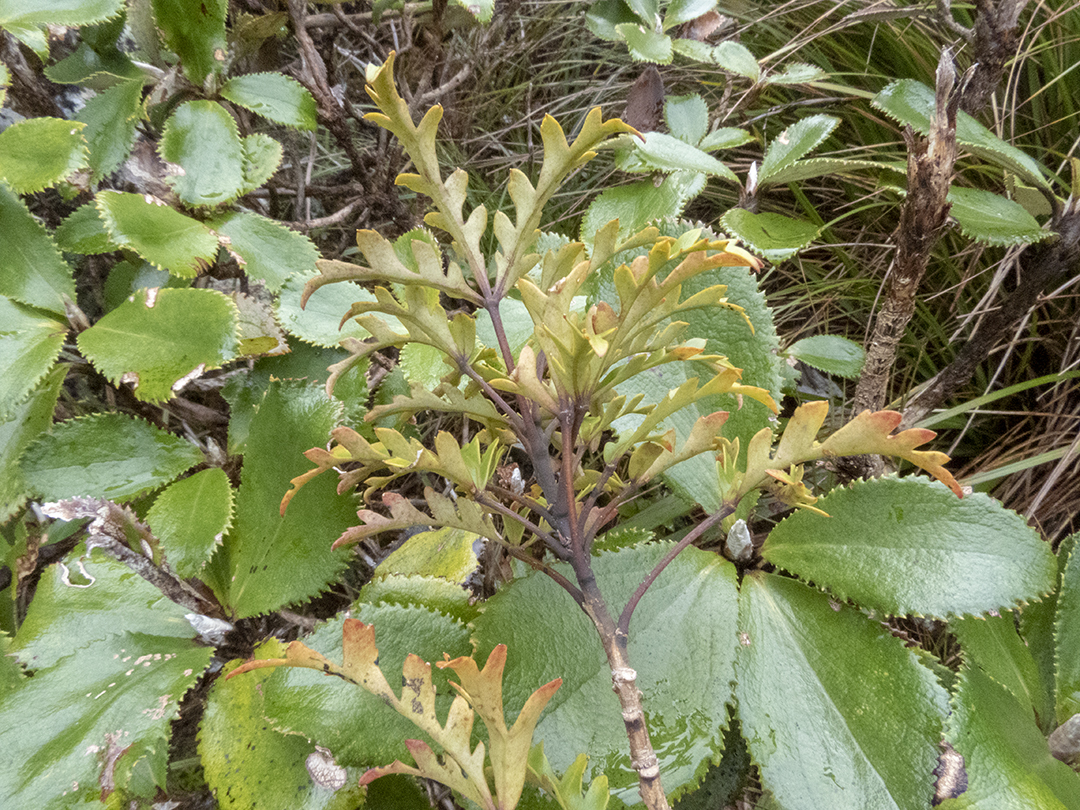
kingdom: Plantae
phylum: Tracheophyta
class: Magnoliopsida
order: Apiales
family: Araliaceae
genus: Raukaua
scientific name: Raukaua simplex
